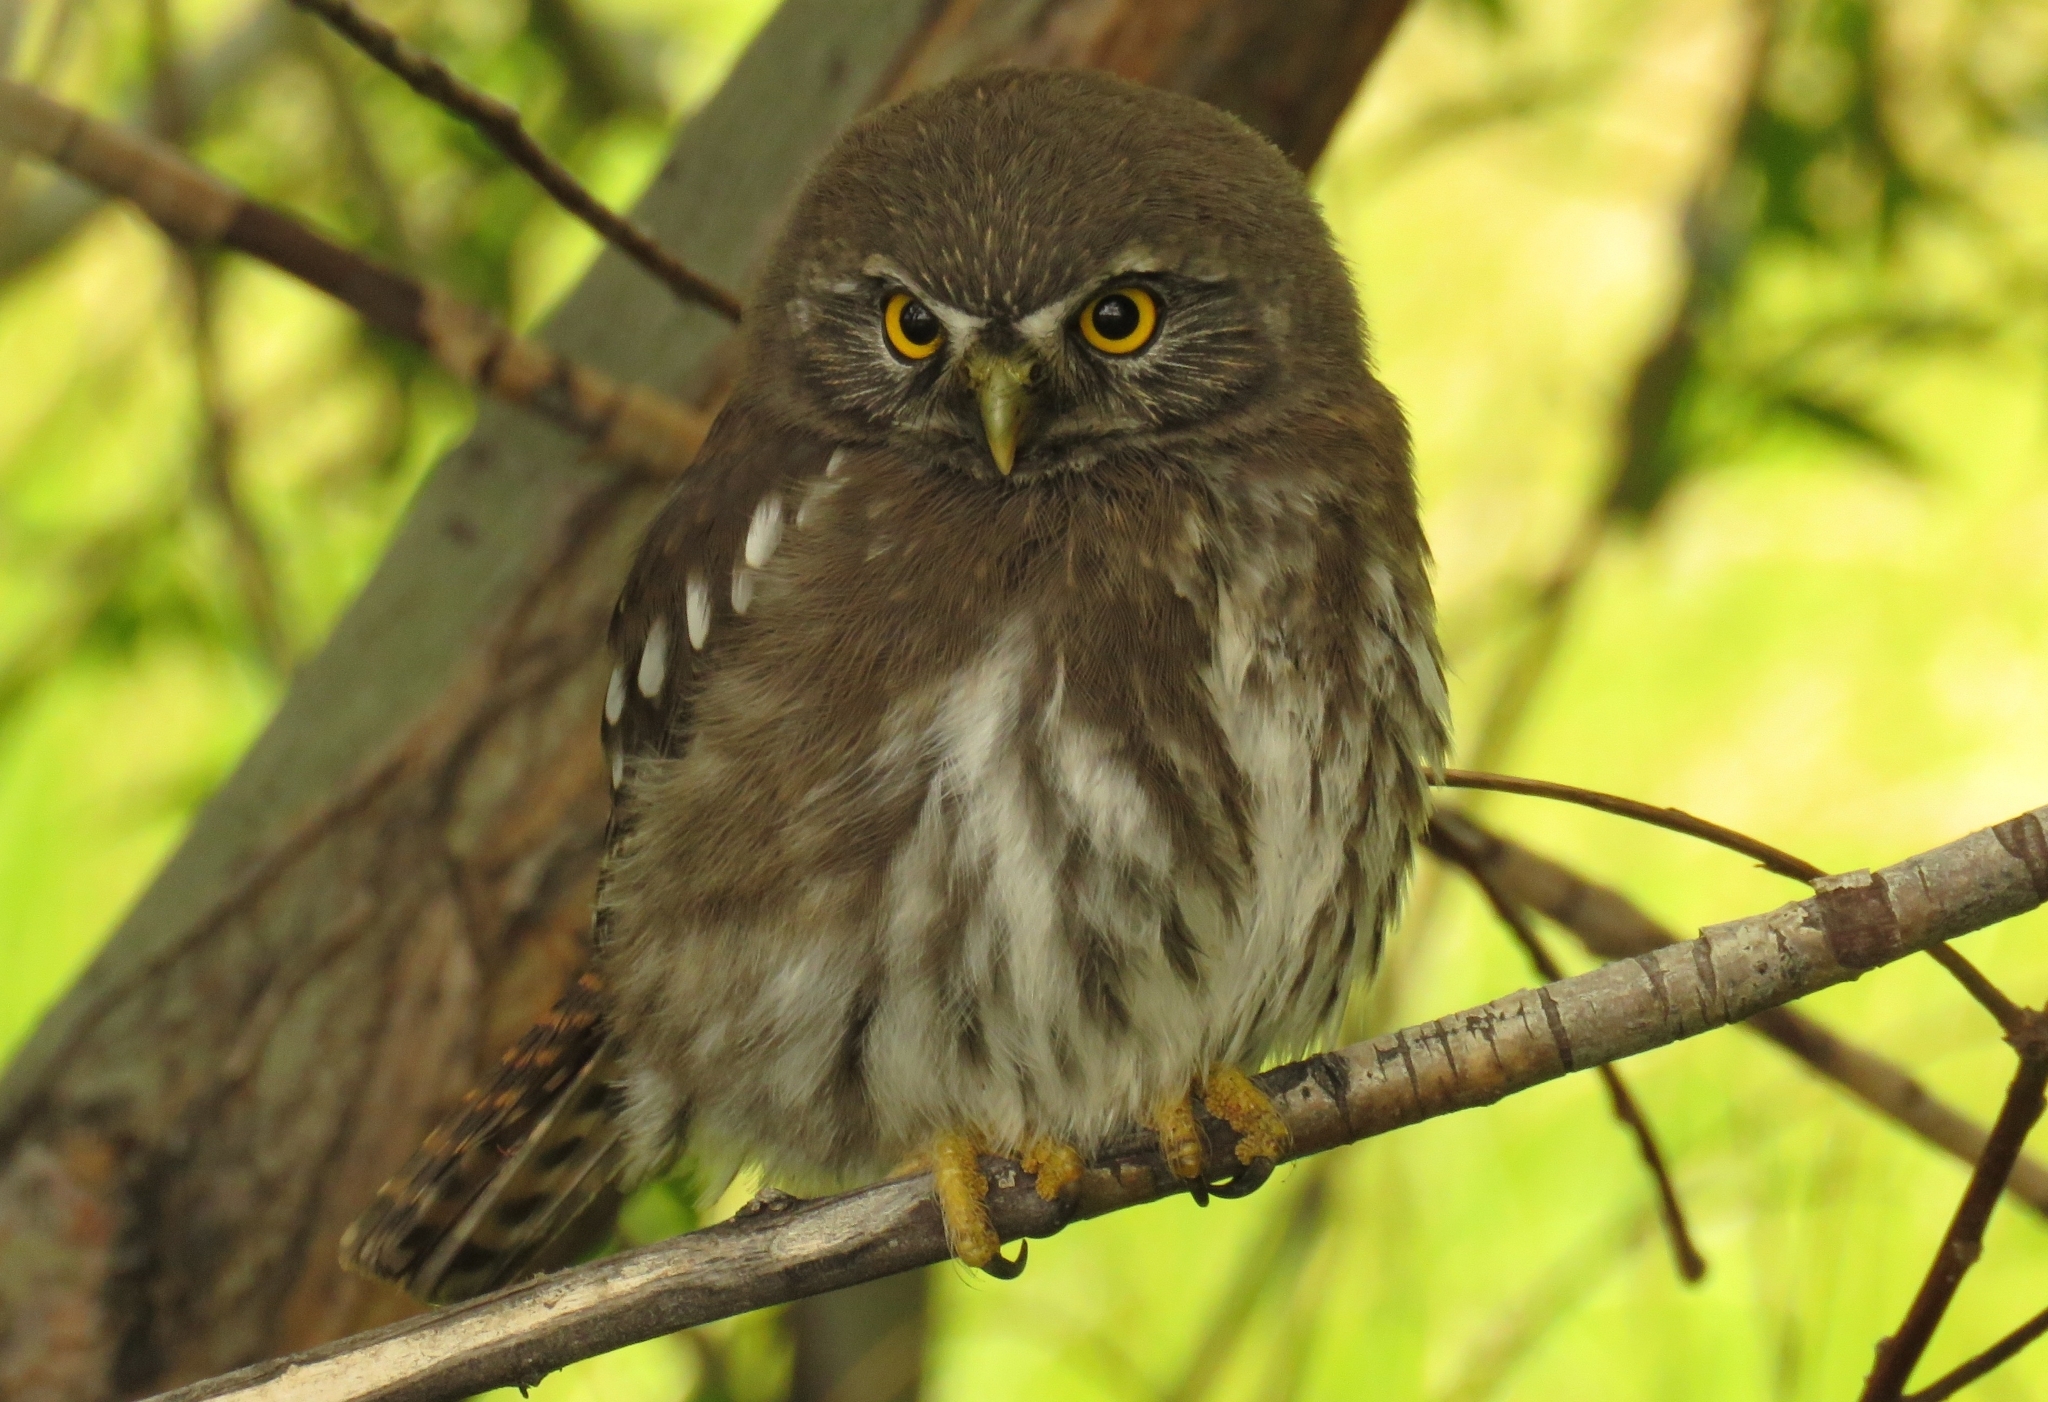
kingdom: Animalia
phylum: Chordata
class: Aves
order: Strigiformes
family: Strigidae
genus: Glaucidium
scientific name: Glaucidium nana
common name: Austral pygmy-owl
